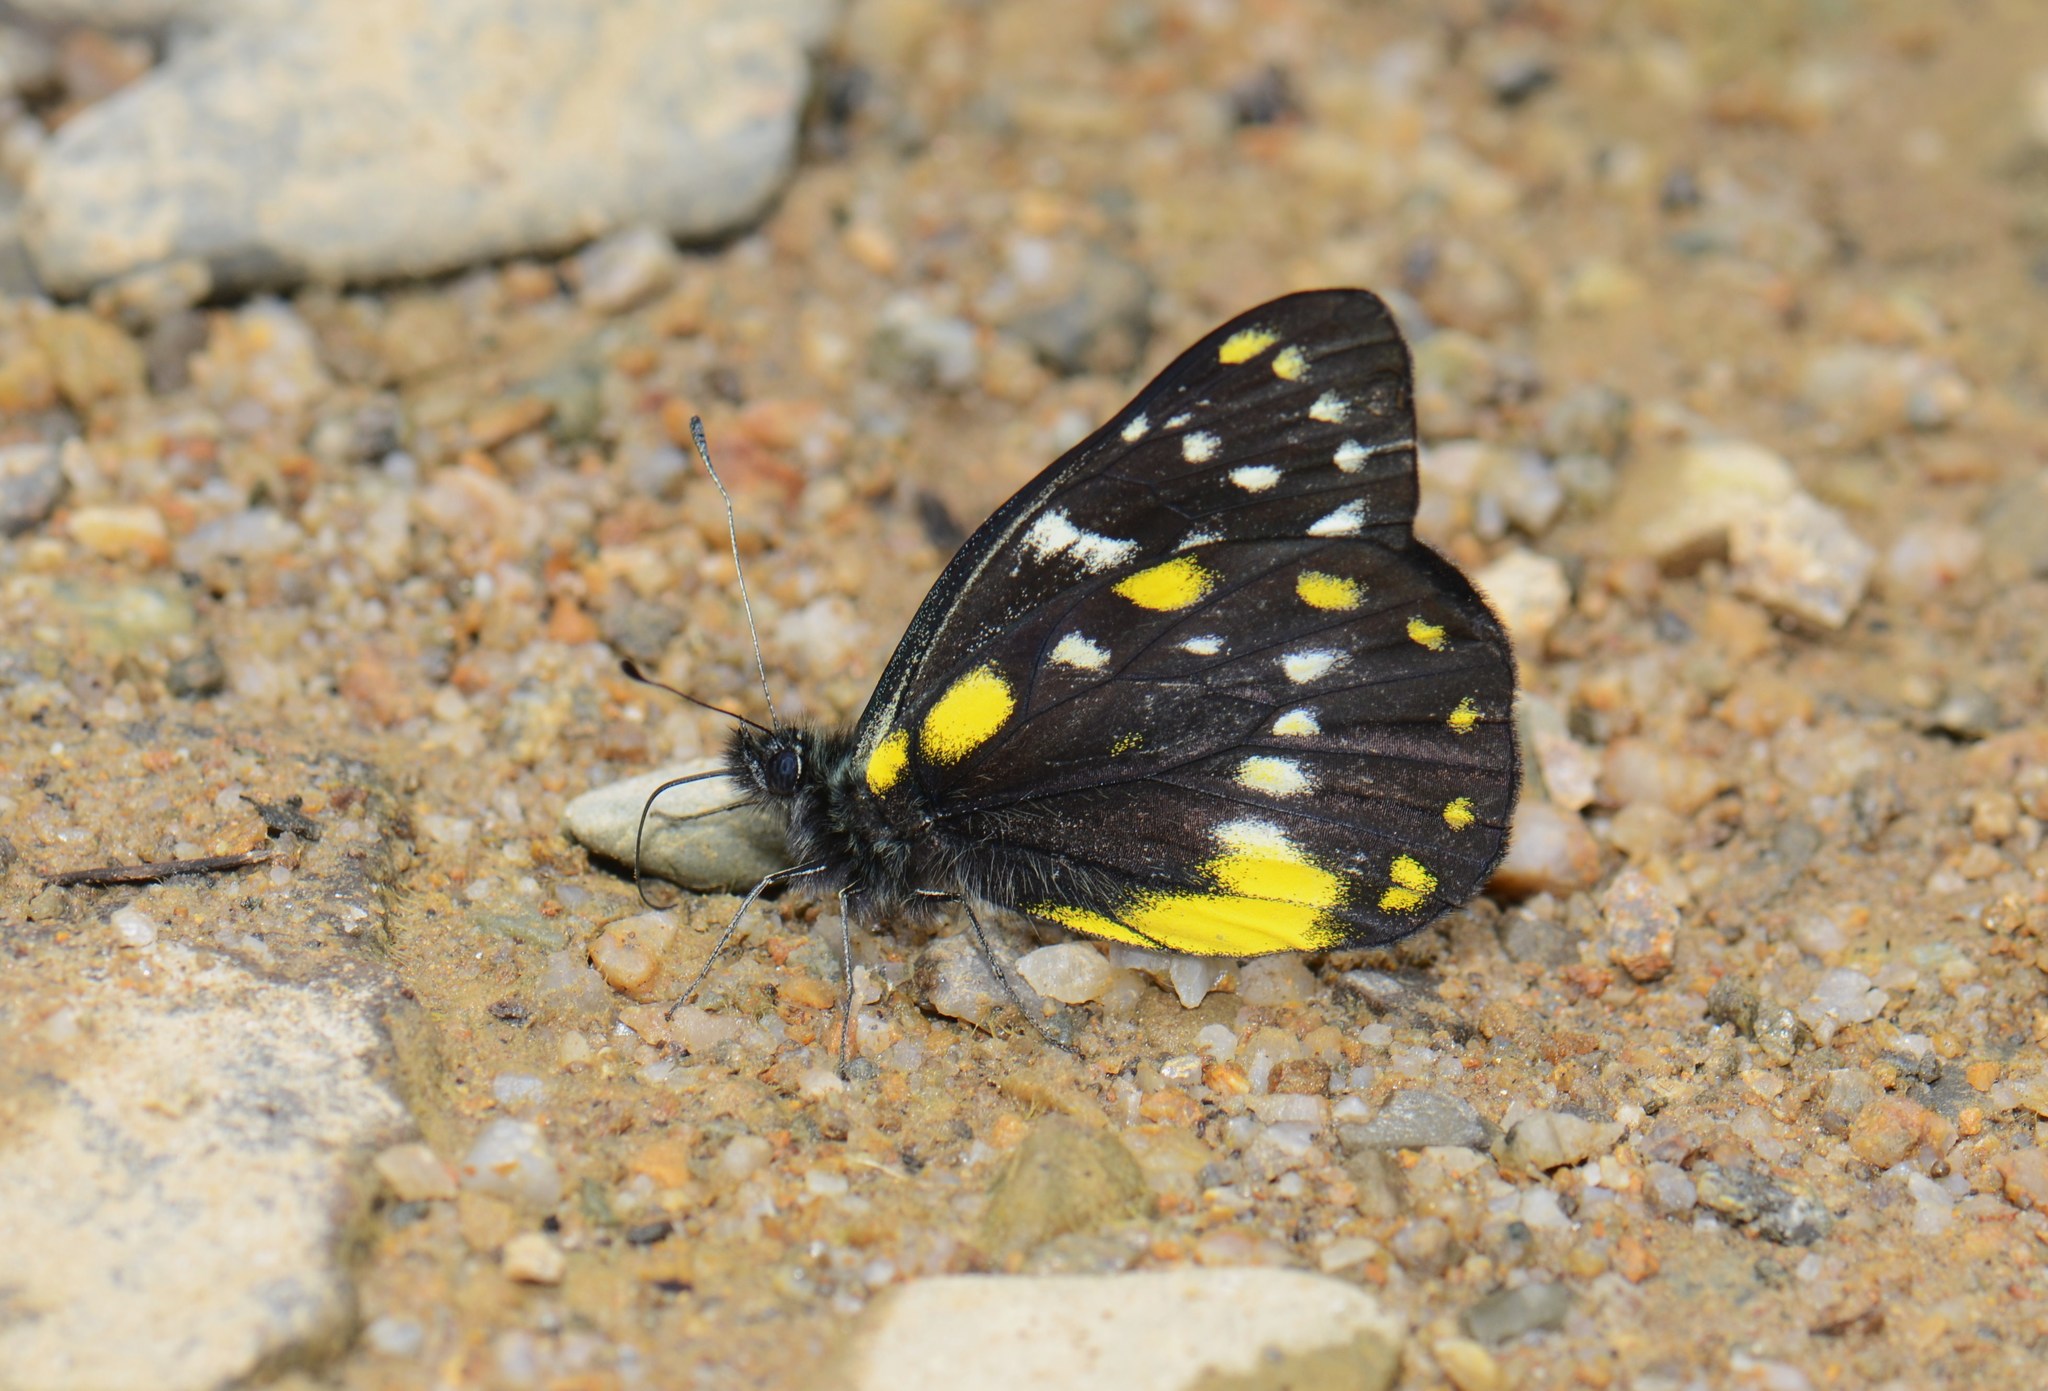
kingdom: Animalia
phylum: Arthropoda
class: Insecta
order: Lepidoptera
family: Pieridae
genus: Delias
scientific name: Delias belladonna
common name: Hill jezebel
